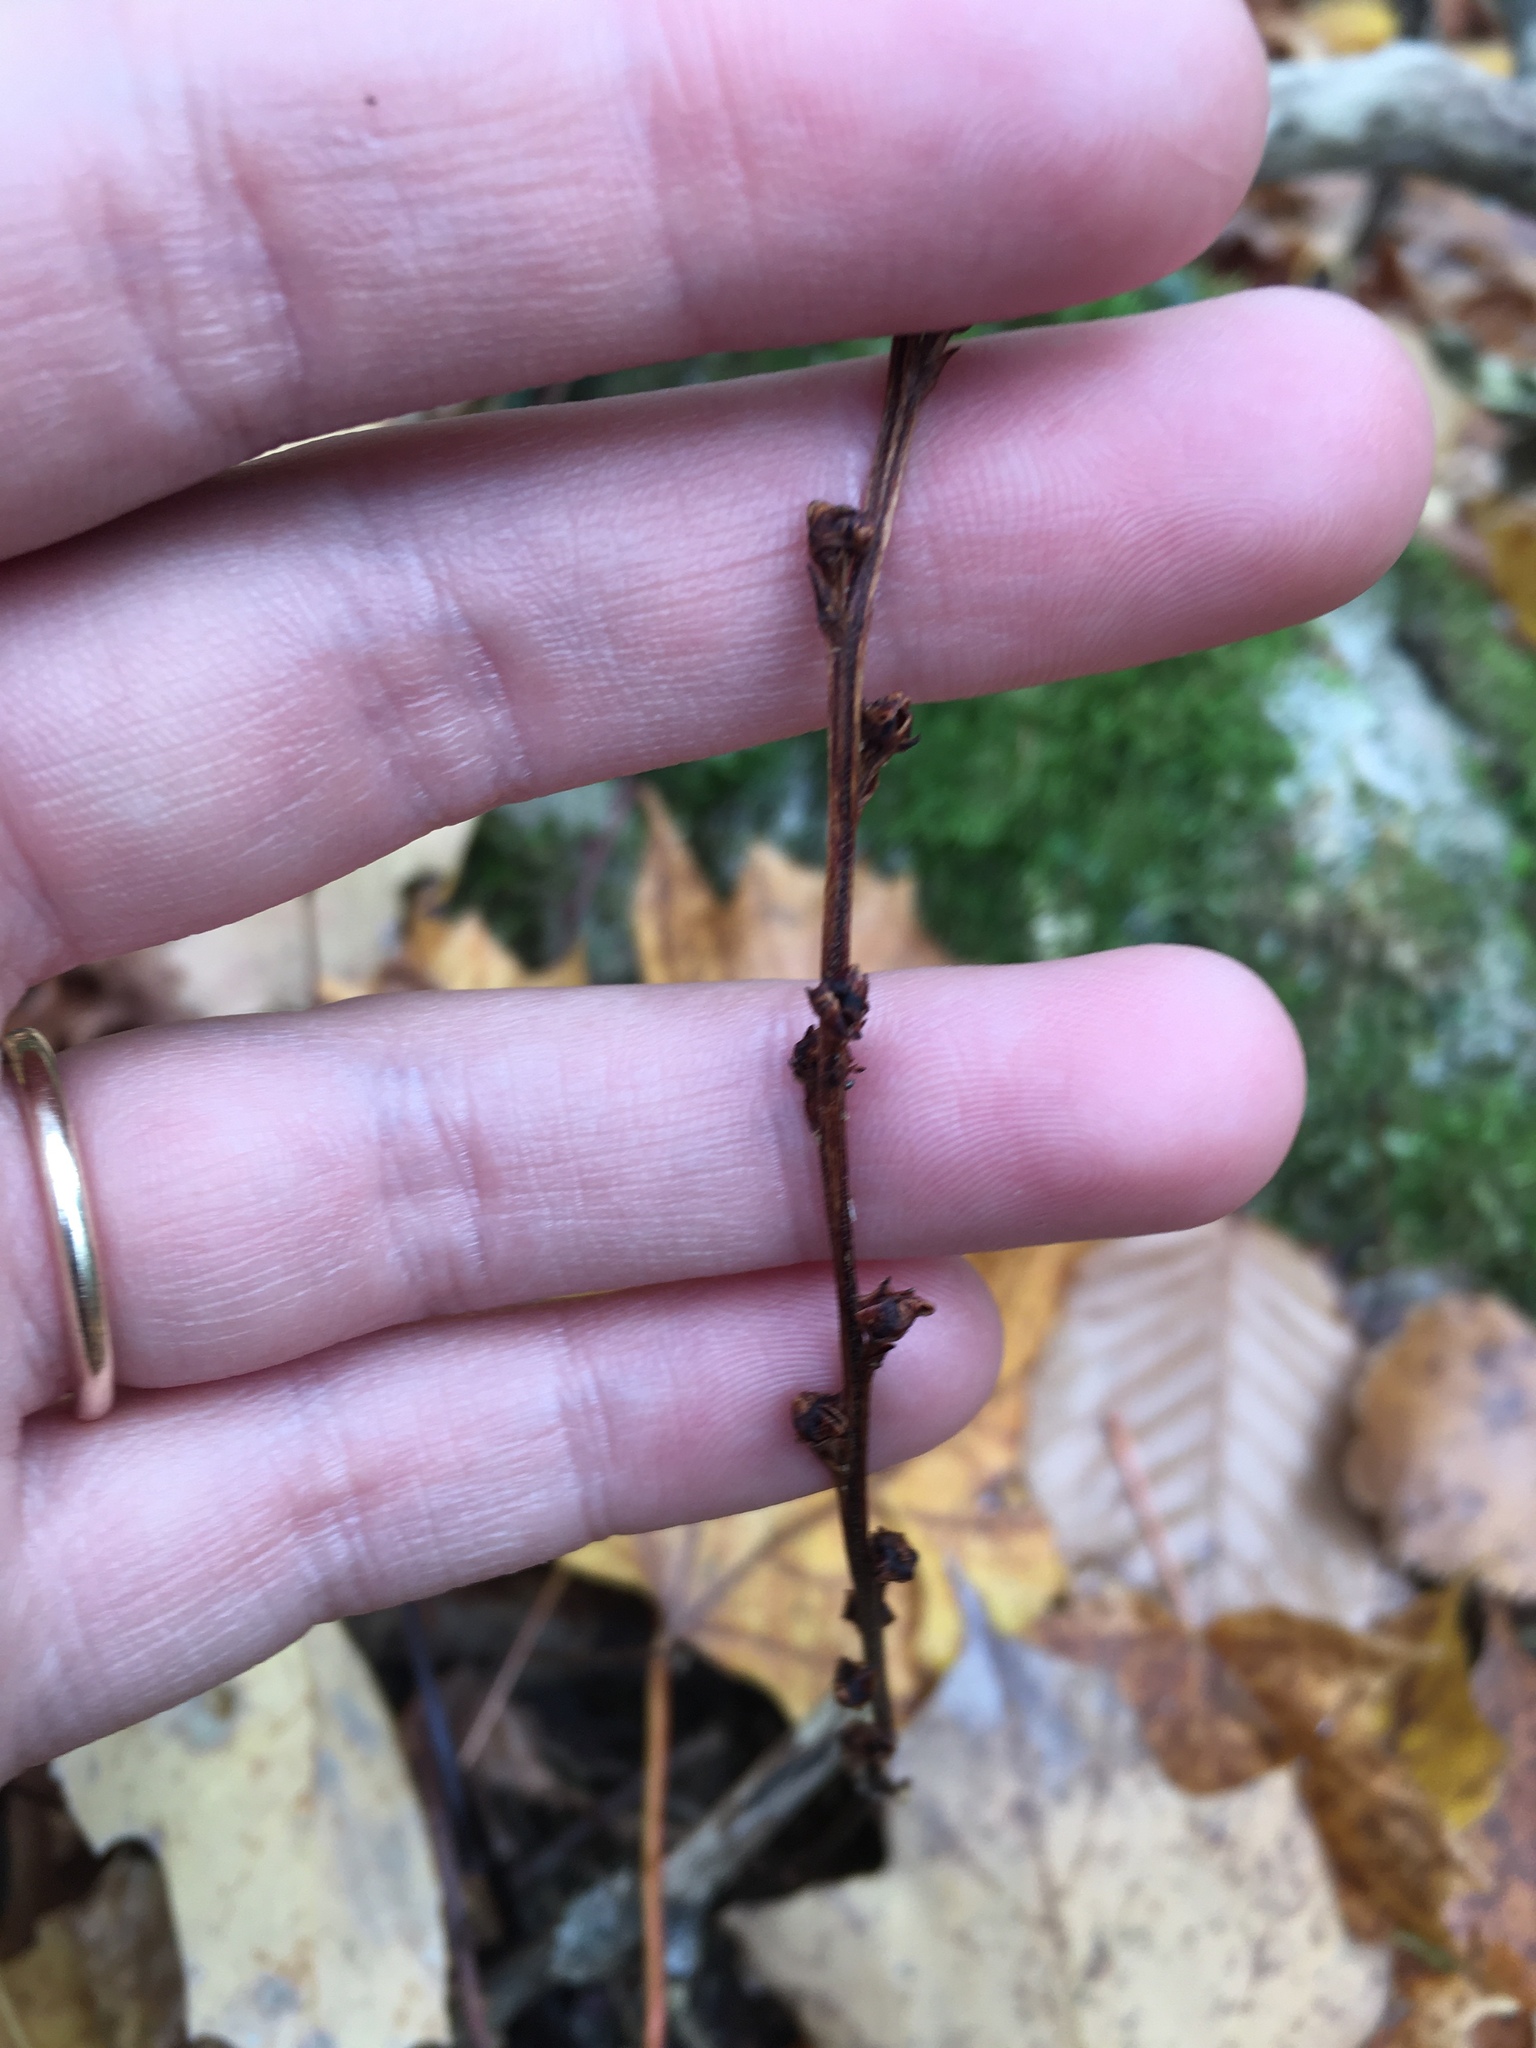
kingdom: Plantae
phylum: Tracheophyta
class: Magnoliopsida
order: Lamiales
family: Orobanchaceae
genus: Epifagus
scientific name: Epifagus virginiana
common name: Beechdrops
